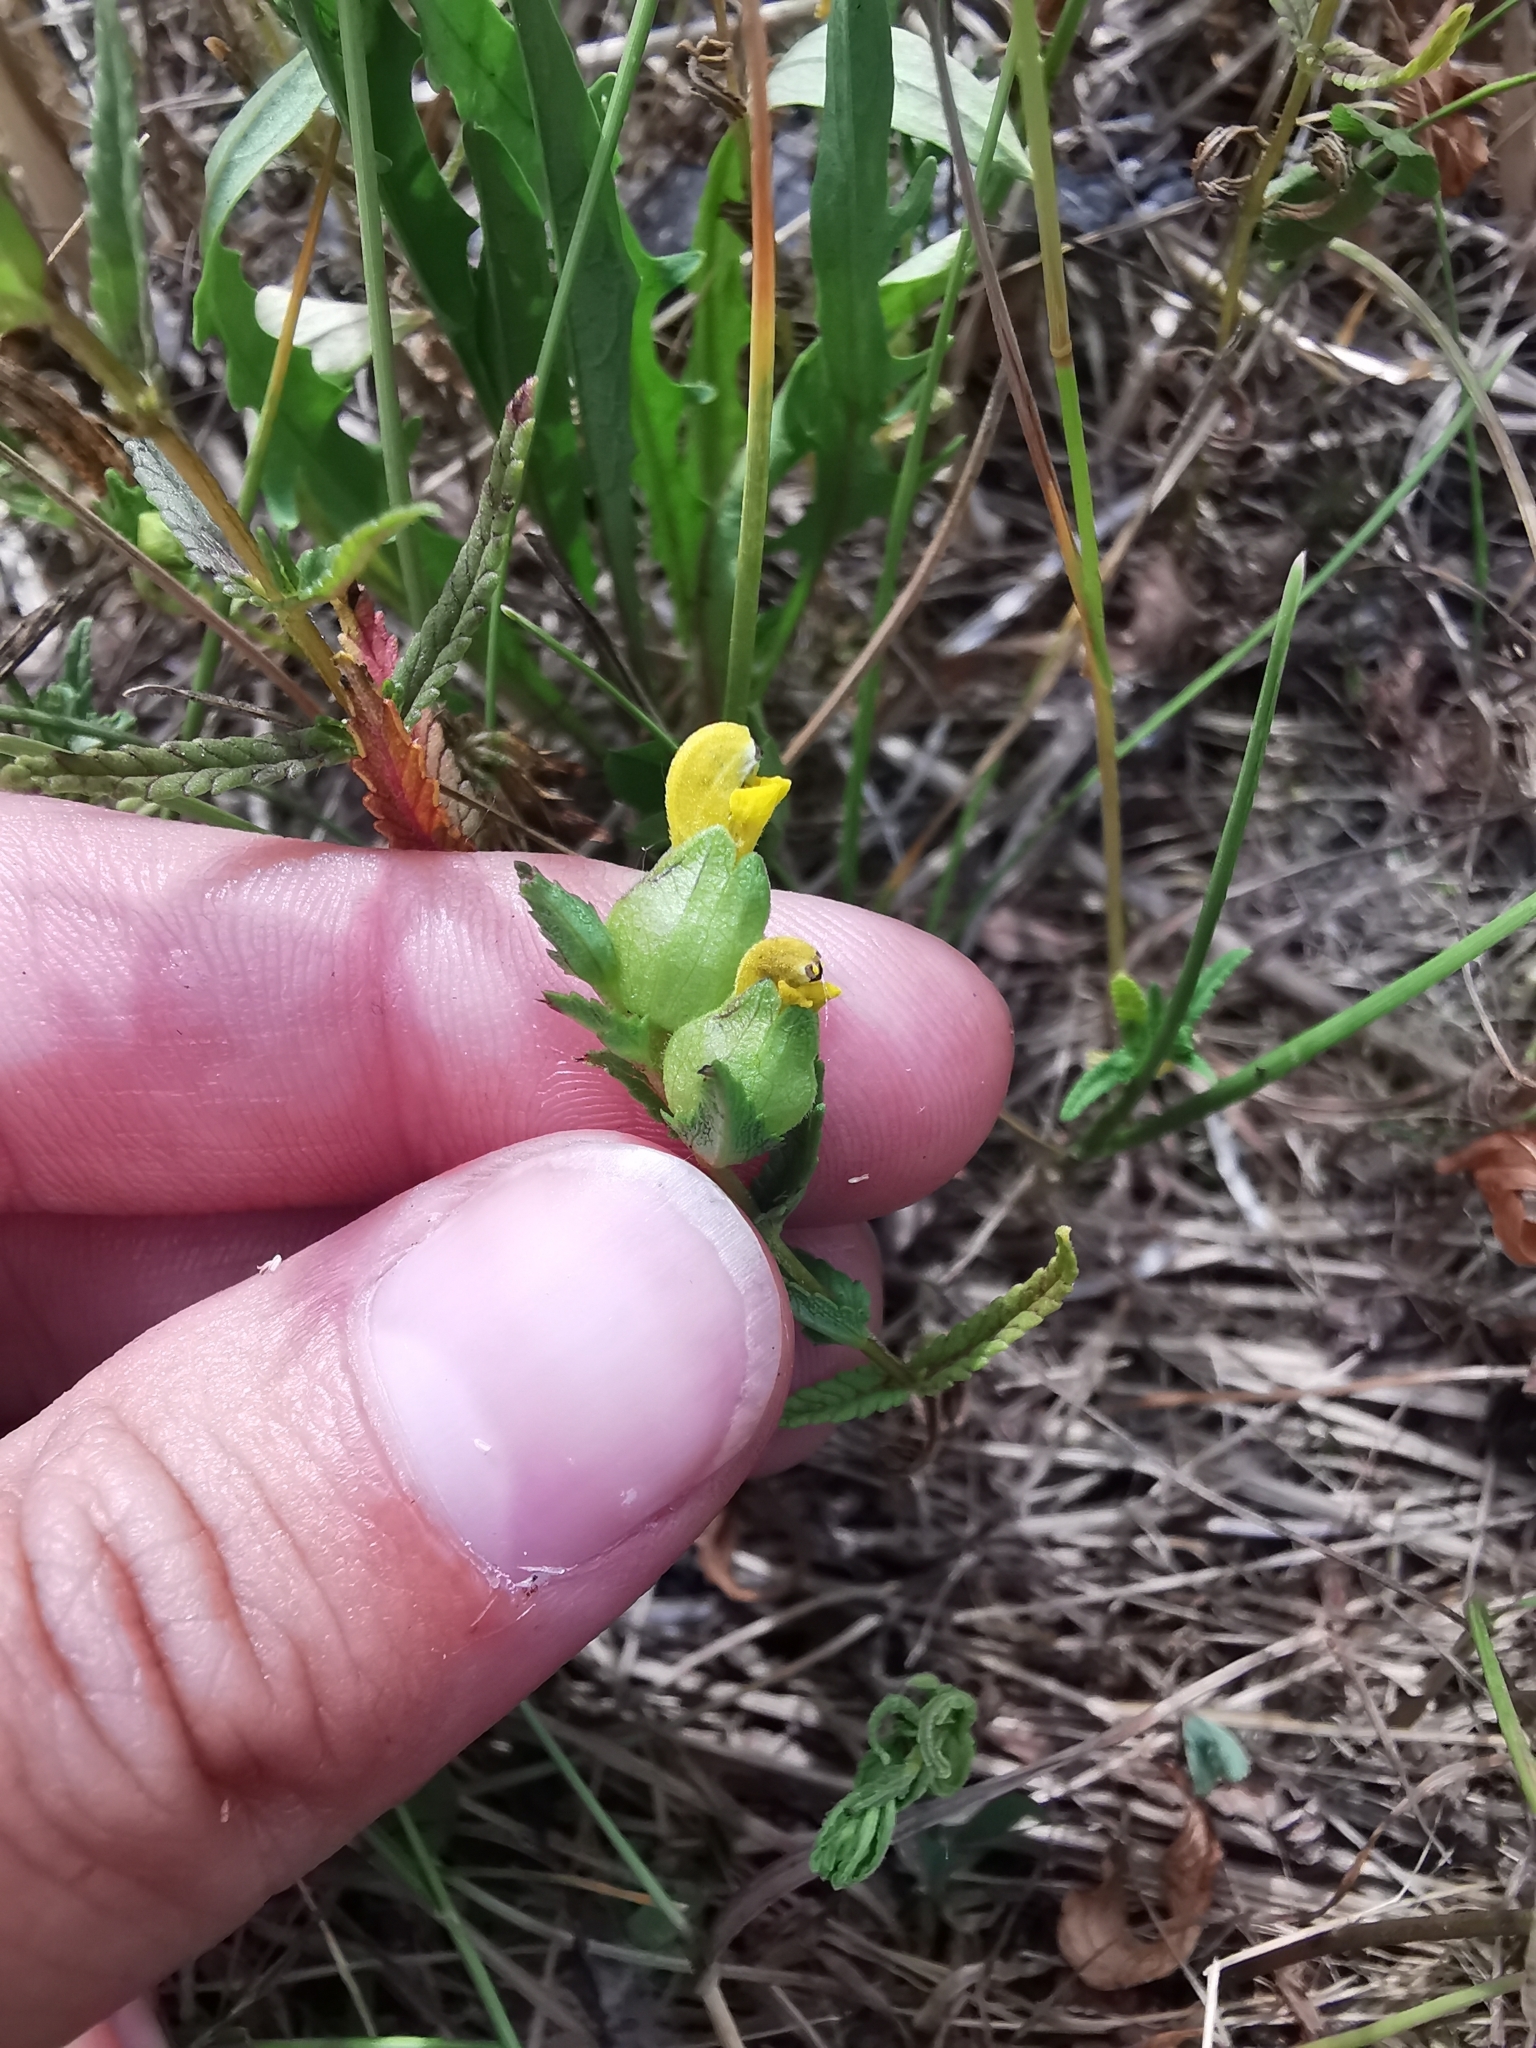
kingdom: Plantae
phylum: Tracheophyta
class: Magnoliopsida
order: Lamiales
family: Orobanchaceae
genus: Rhinanthus
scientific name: Rhinanthus minor
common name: Yellow-rattle
